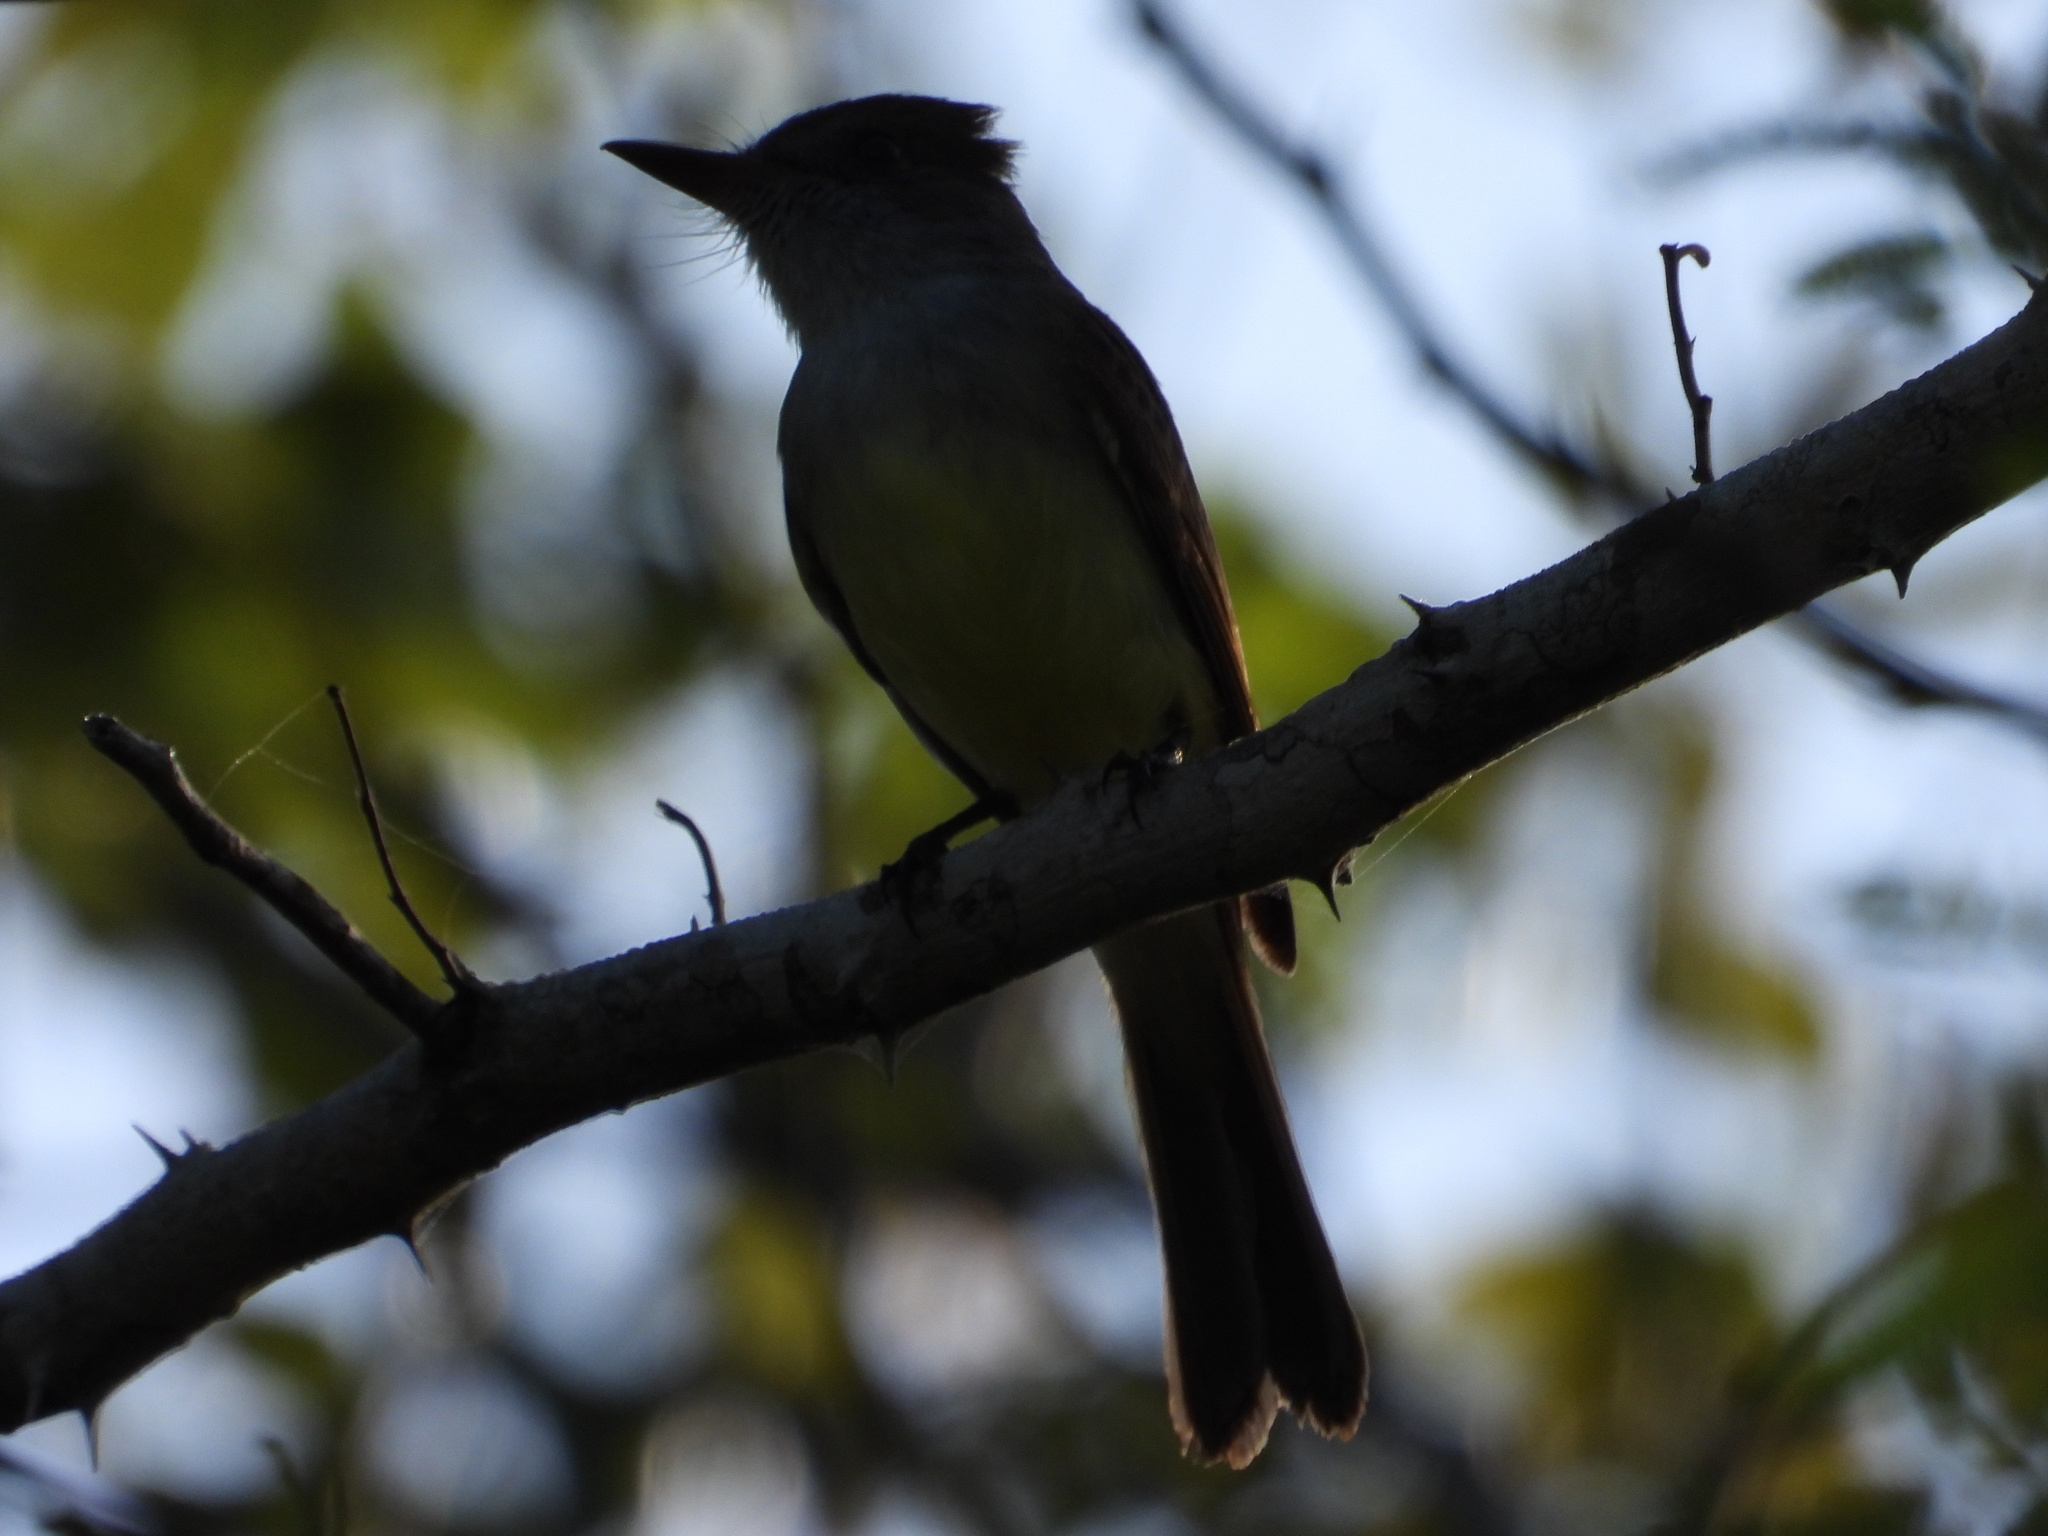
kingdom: Animalia
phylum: Chordata
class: Aves
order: Passeriformes
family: Tyrannidae
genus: Myiarchus
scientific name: Myiarchus yucatanensis
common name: Yucatan flycatcher
